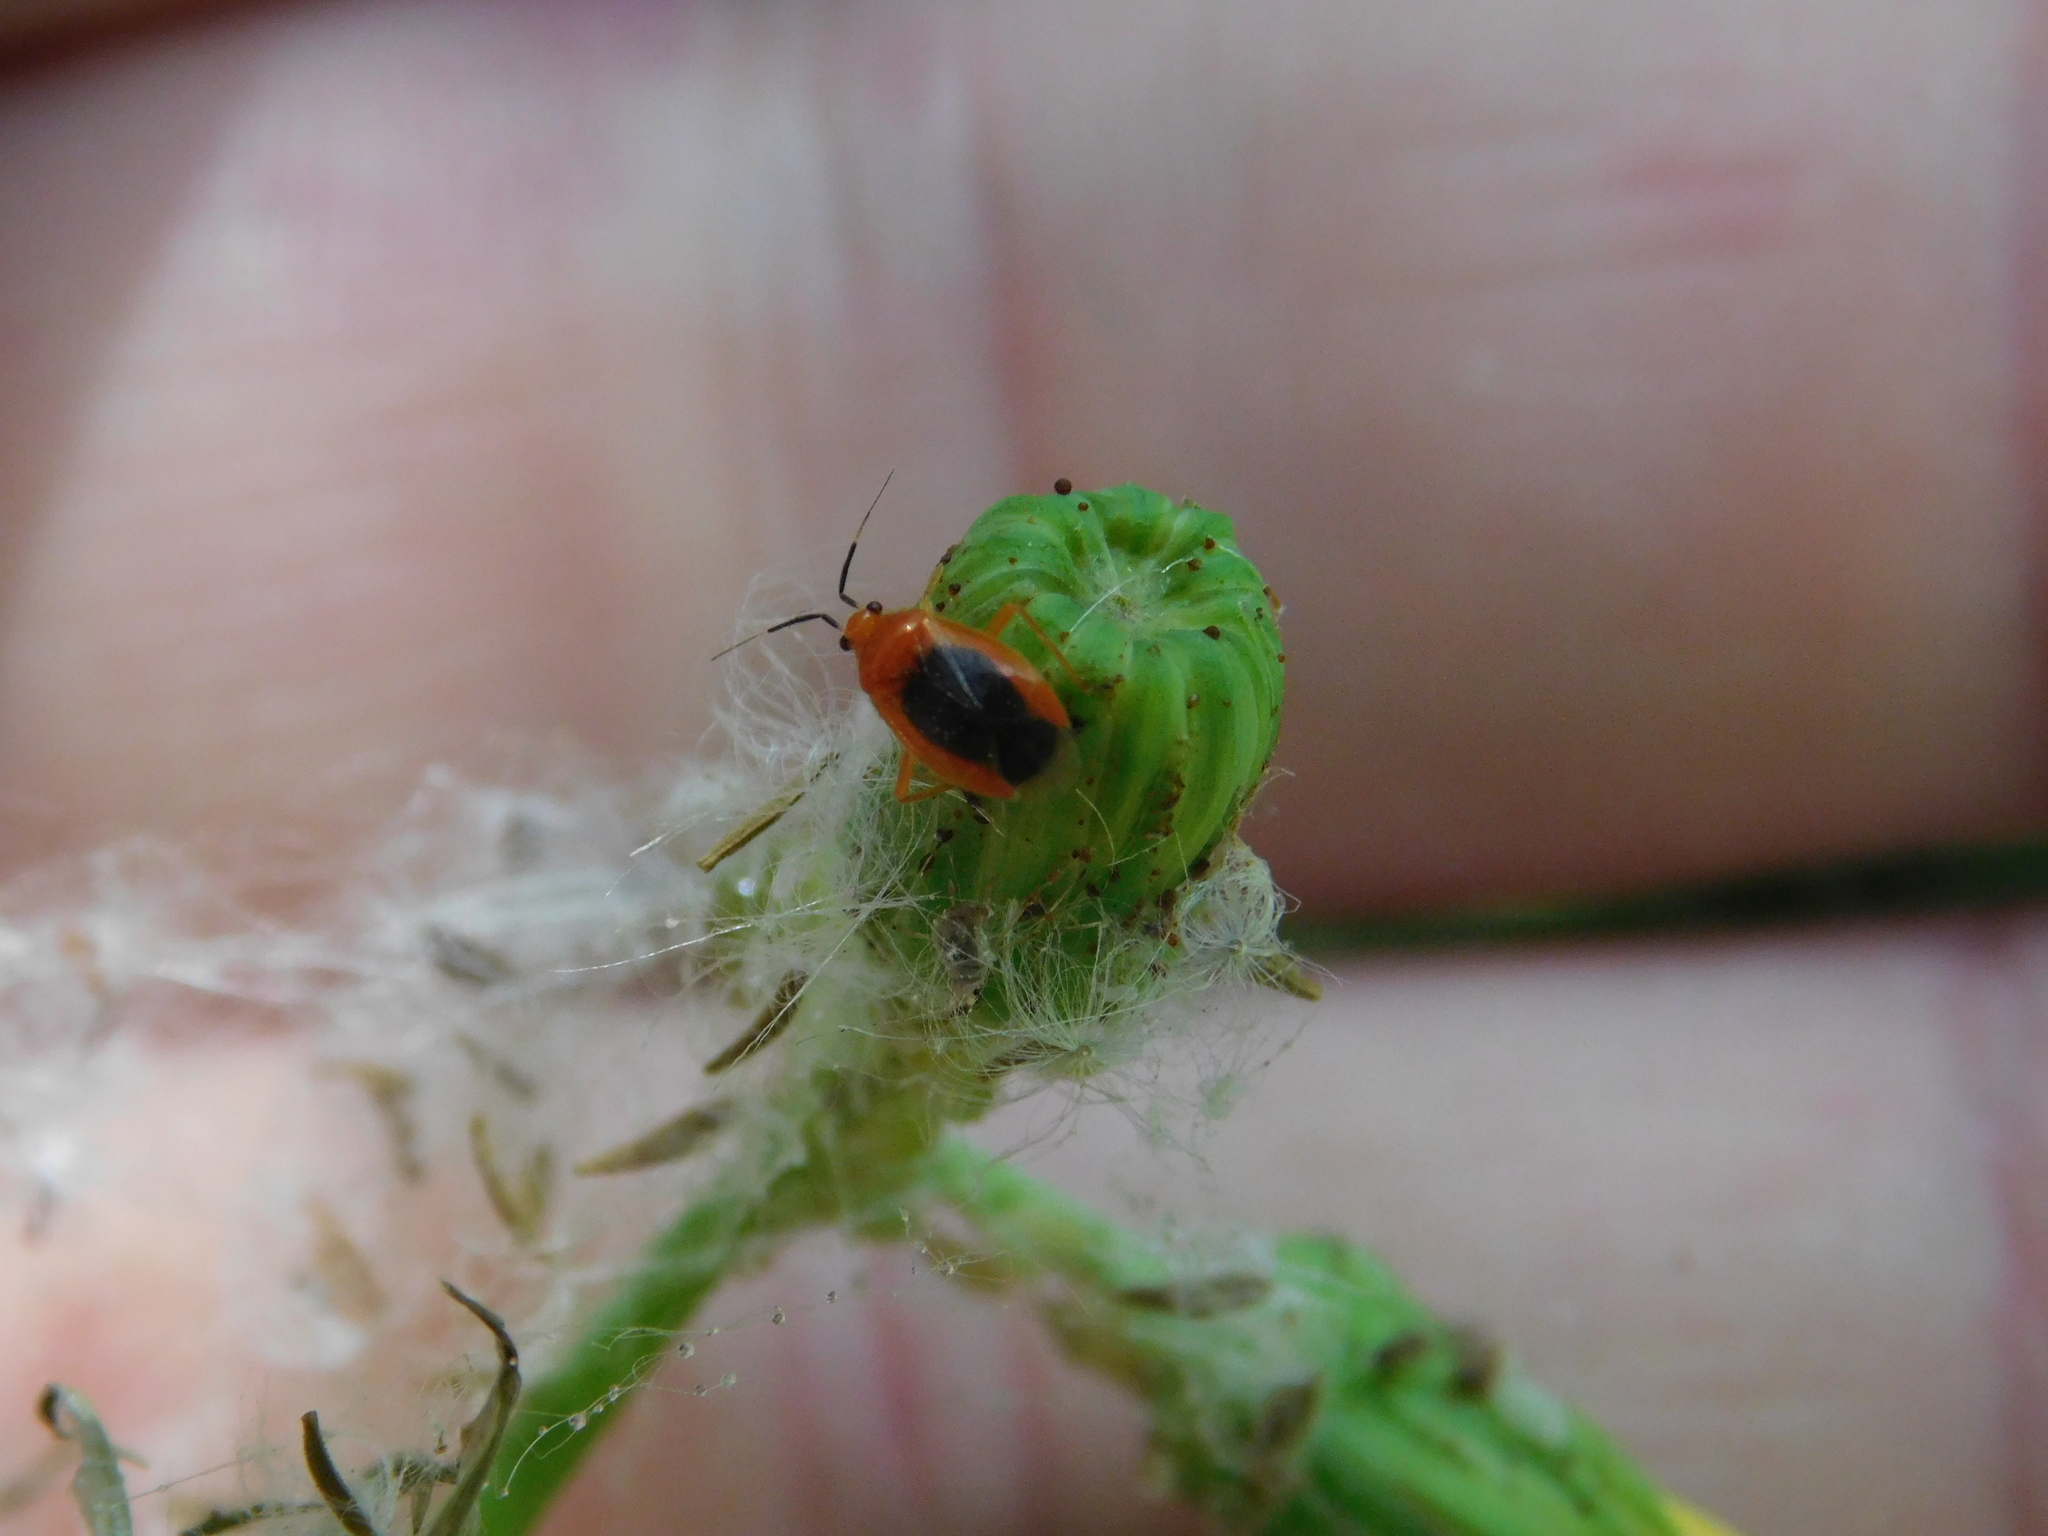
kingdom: Animalia
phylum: Arthropoda
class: Insecta
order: Hemiptera
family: Miridae
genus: Tenthecoris
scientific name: Tenthecoris bicolor
